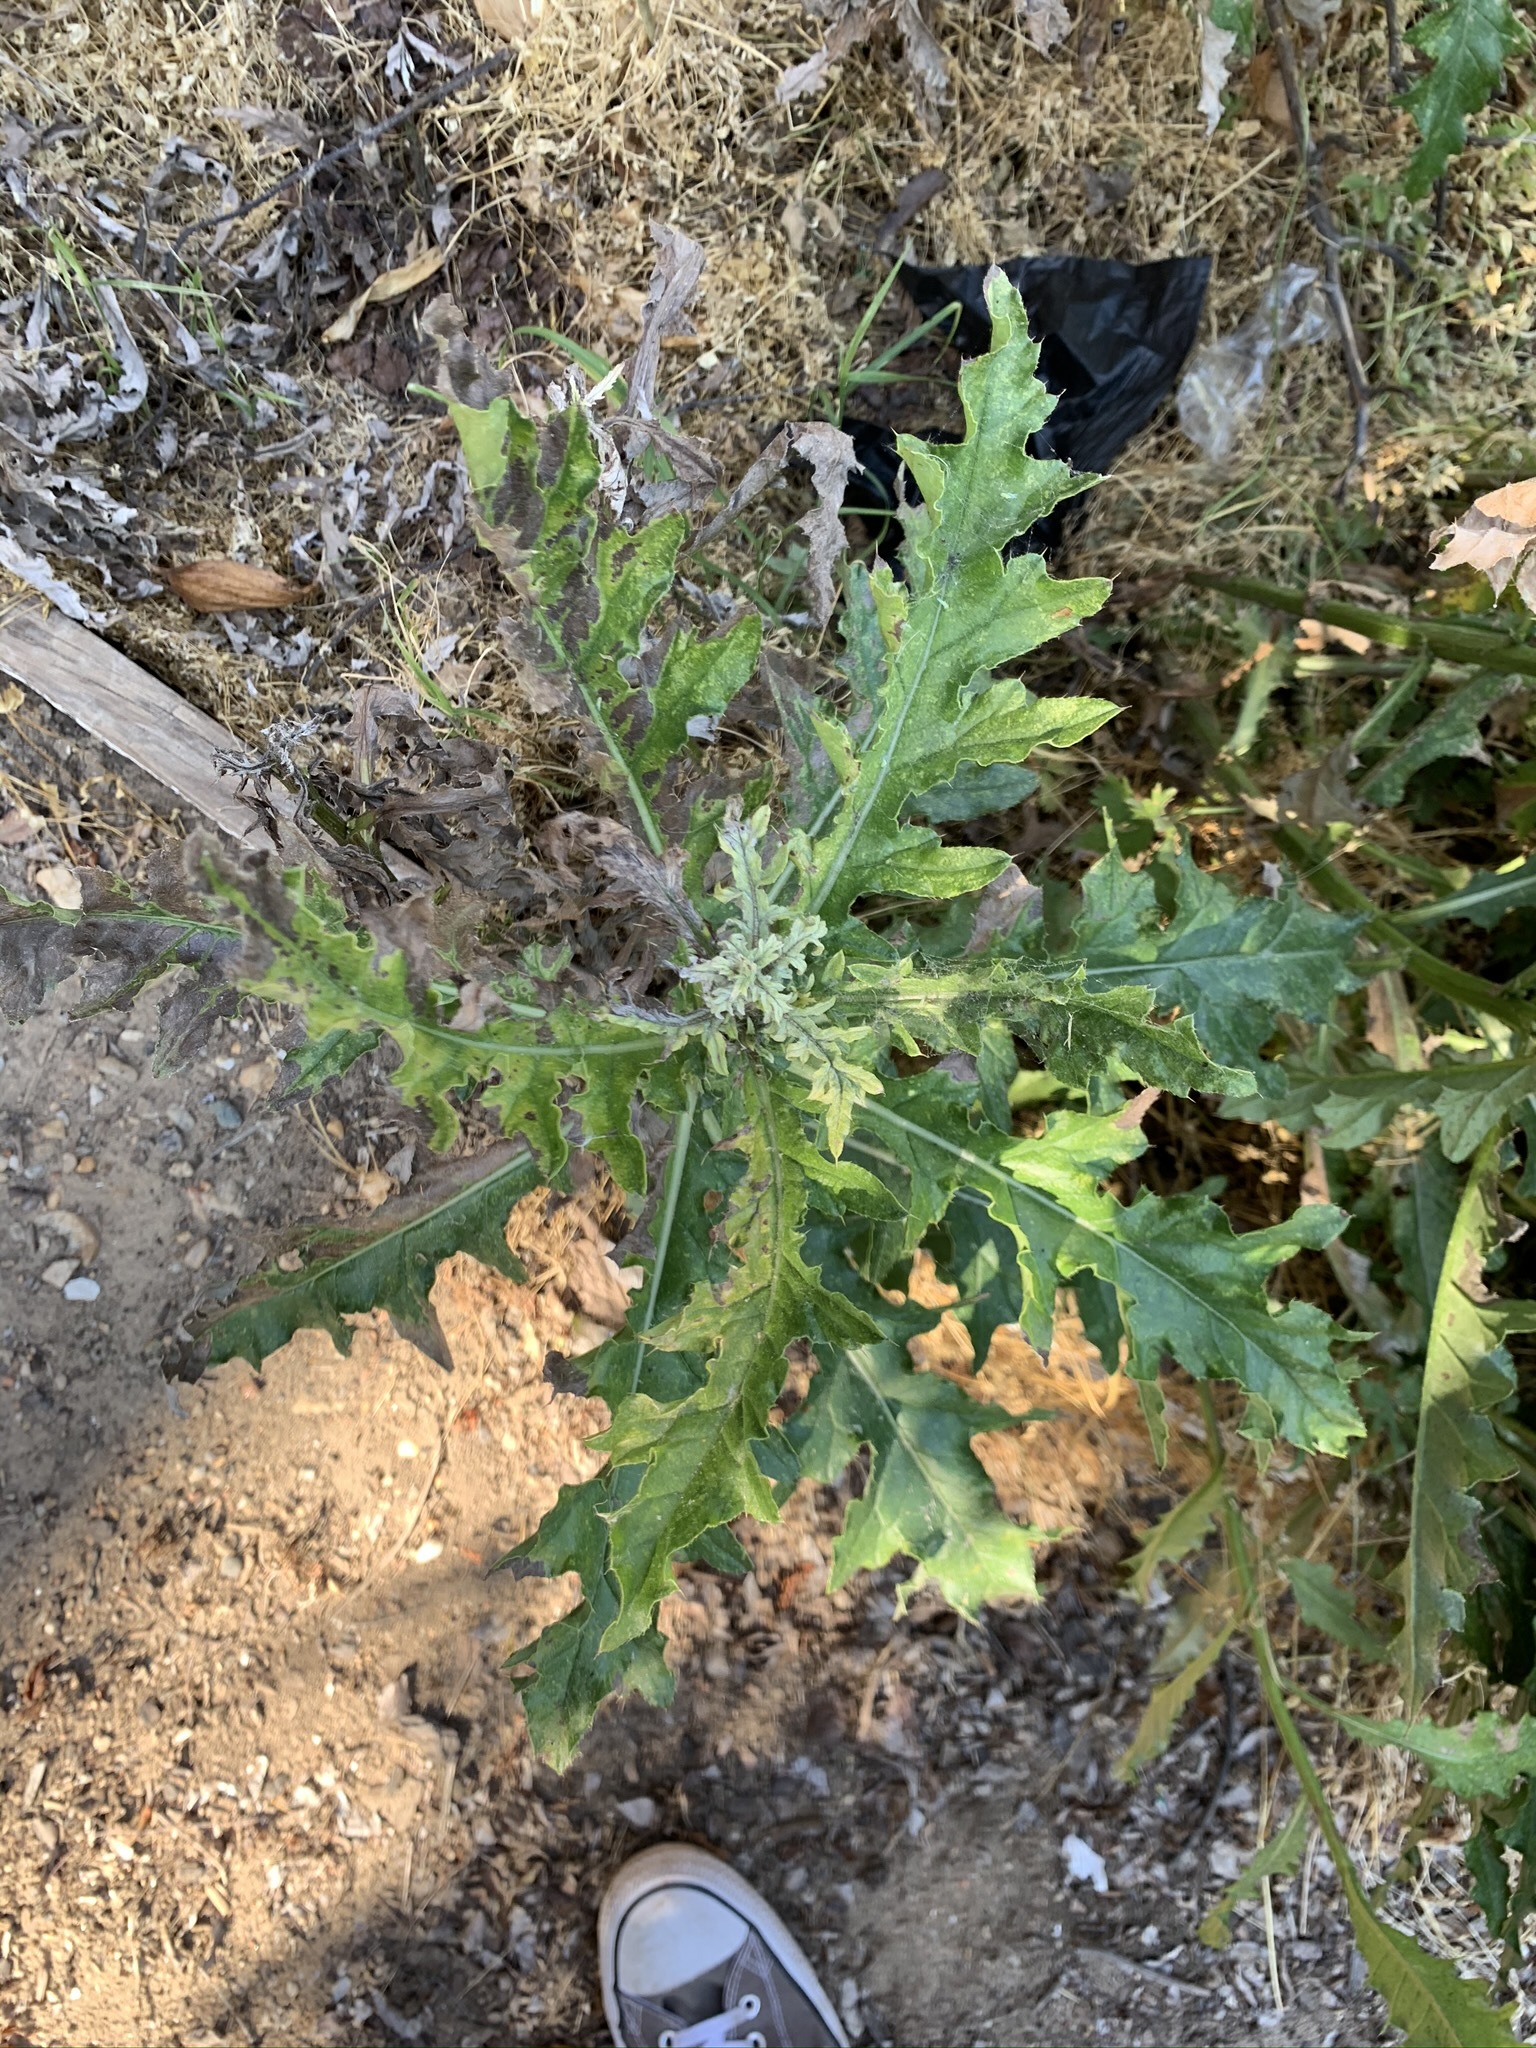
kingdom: Plantae
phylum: Tracheophyta
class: Magnoliopsida
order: Asterales
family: Asteraceae
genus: Cirsium
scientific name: Cirsium arvense
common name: Creeping thistle
